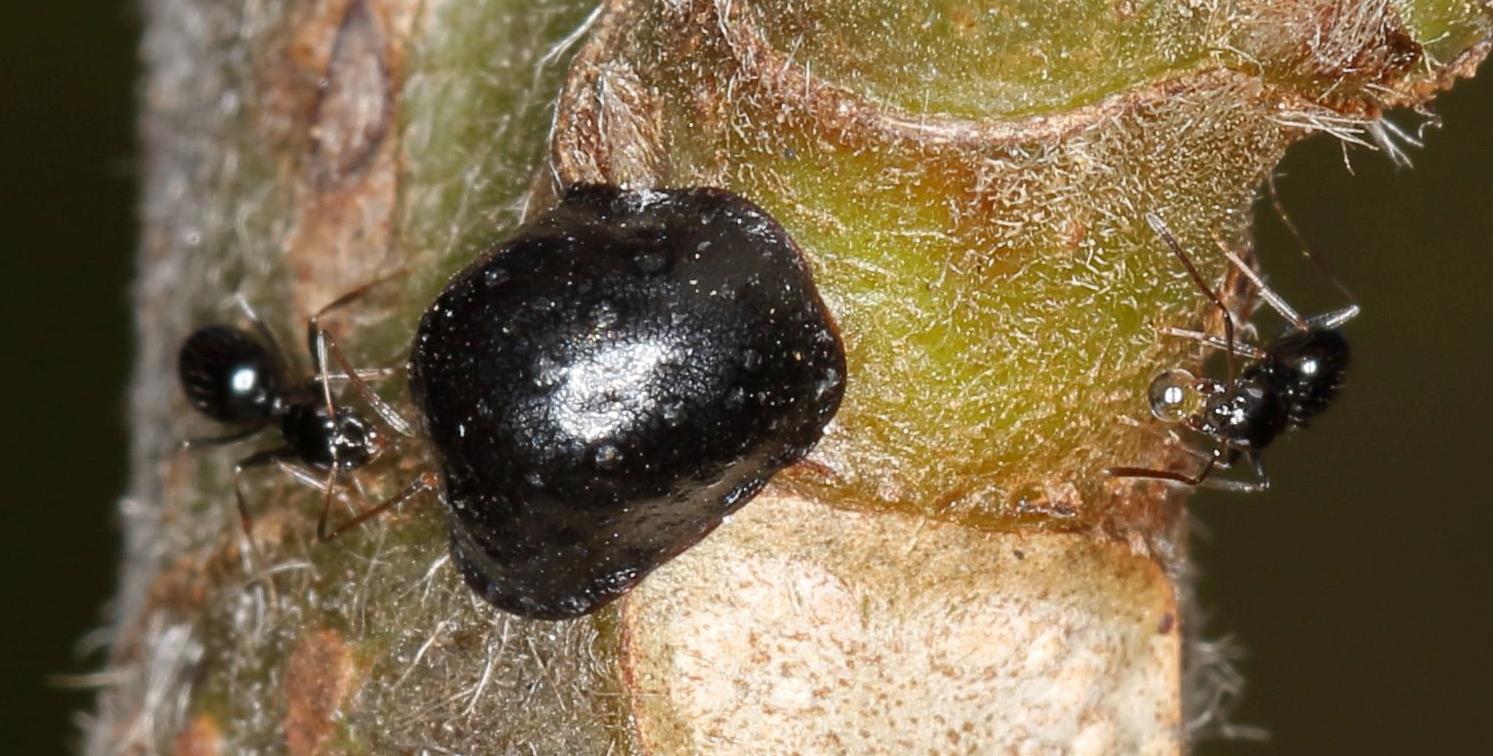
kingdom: Animalia
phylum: Arthropoda
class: Insecta
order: Hymenoptera
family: Formicidae
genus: Lepisiota
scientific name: Lepisiota capensis
